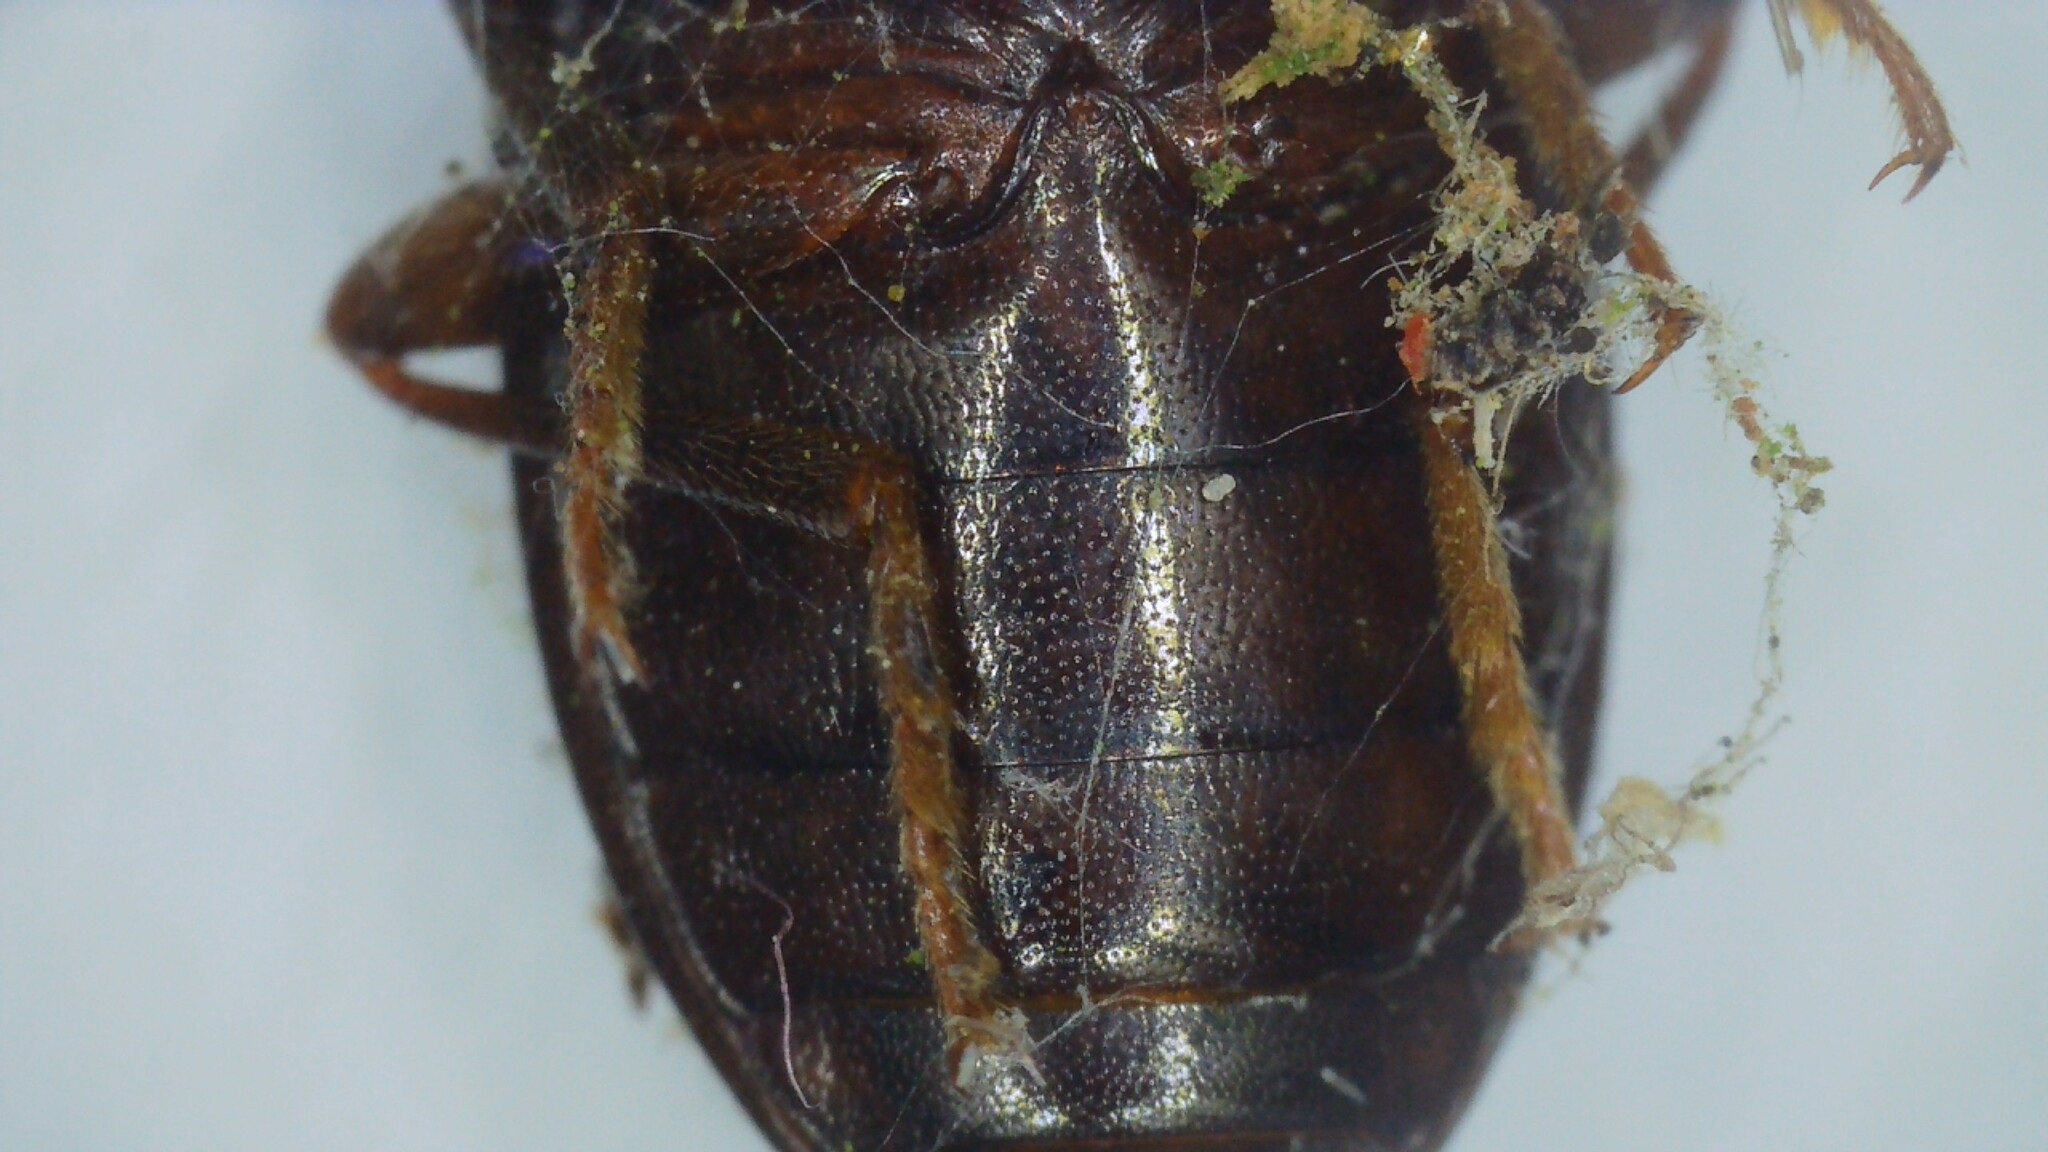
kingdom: Animalia
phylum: Arthropoda
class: Insecta
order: Coleoptera
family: Tenebrionidae
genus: Nalassus
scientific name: Nalassus laevioctostriatus
